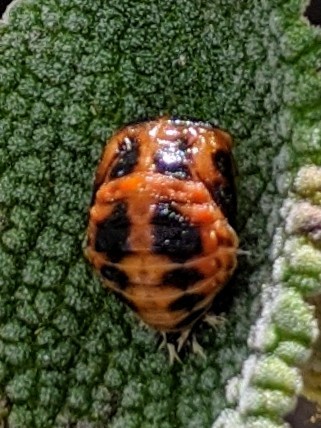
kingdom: Animalia
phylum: Arthropoda
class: Insecta
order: Coleoptera
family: Coccinellidae
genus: Harmonia
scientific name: Harmonia axyridis
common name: Harlequin ladybird
